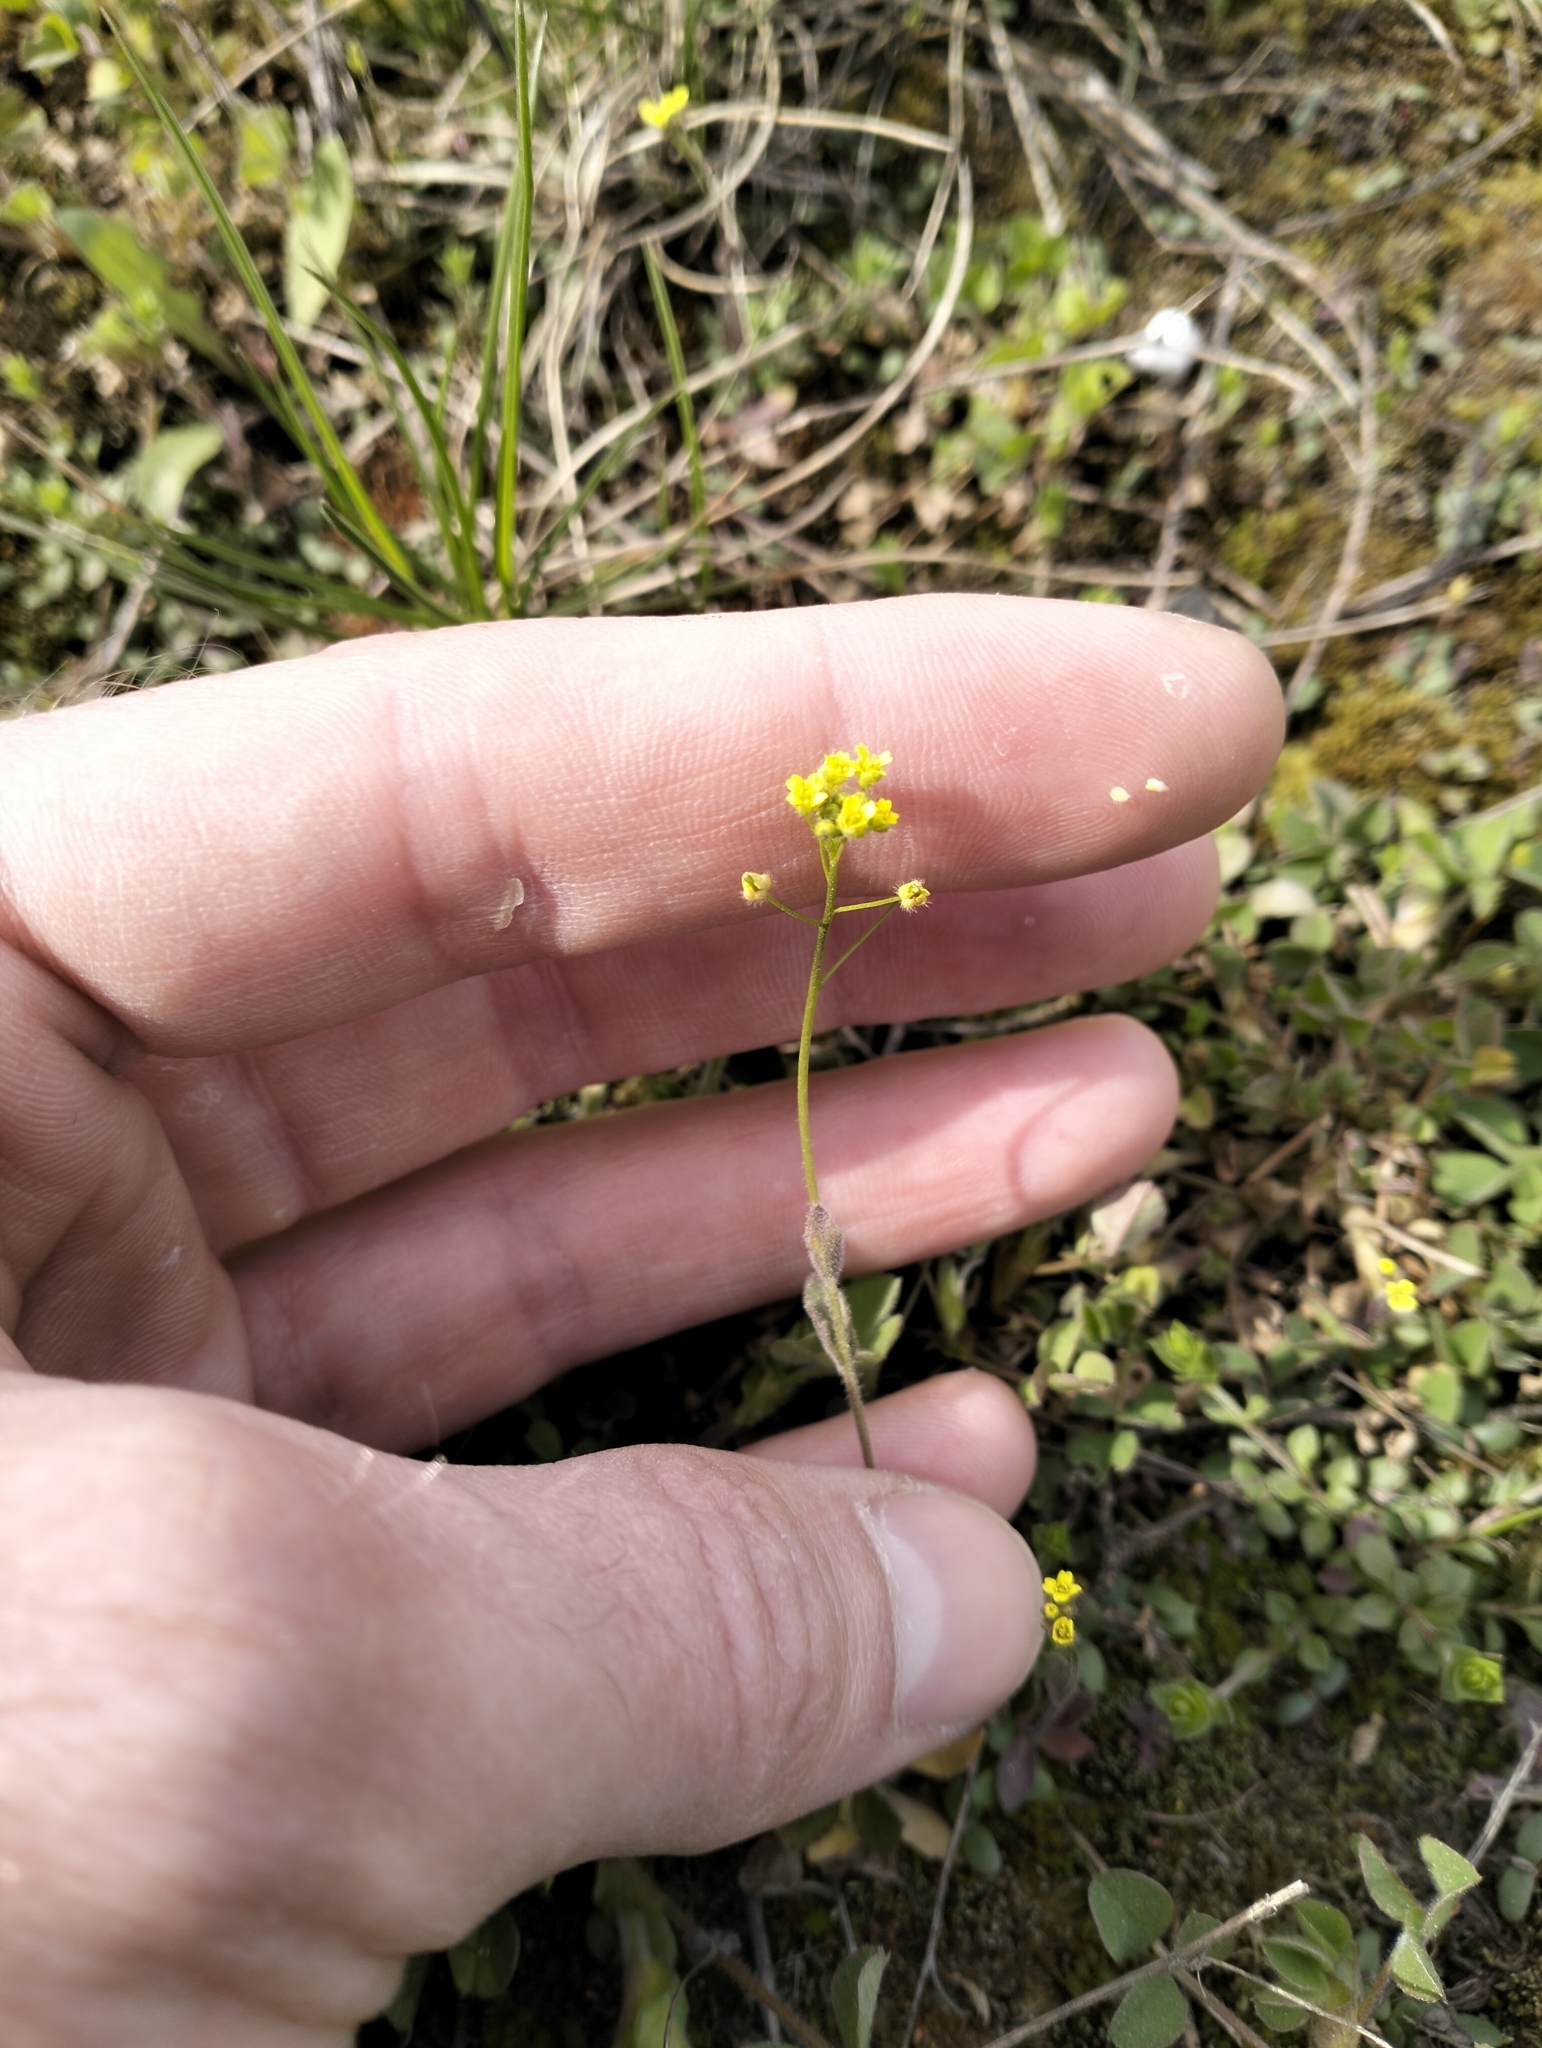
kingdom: Plantae
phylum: Tracheophyta
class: Magnoliopsida
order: Brassicales
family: Brassicaceae
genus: Draba
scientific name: Draba nemorosa
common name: Wood whitlow-grass
